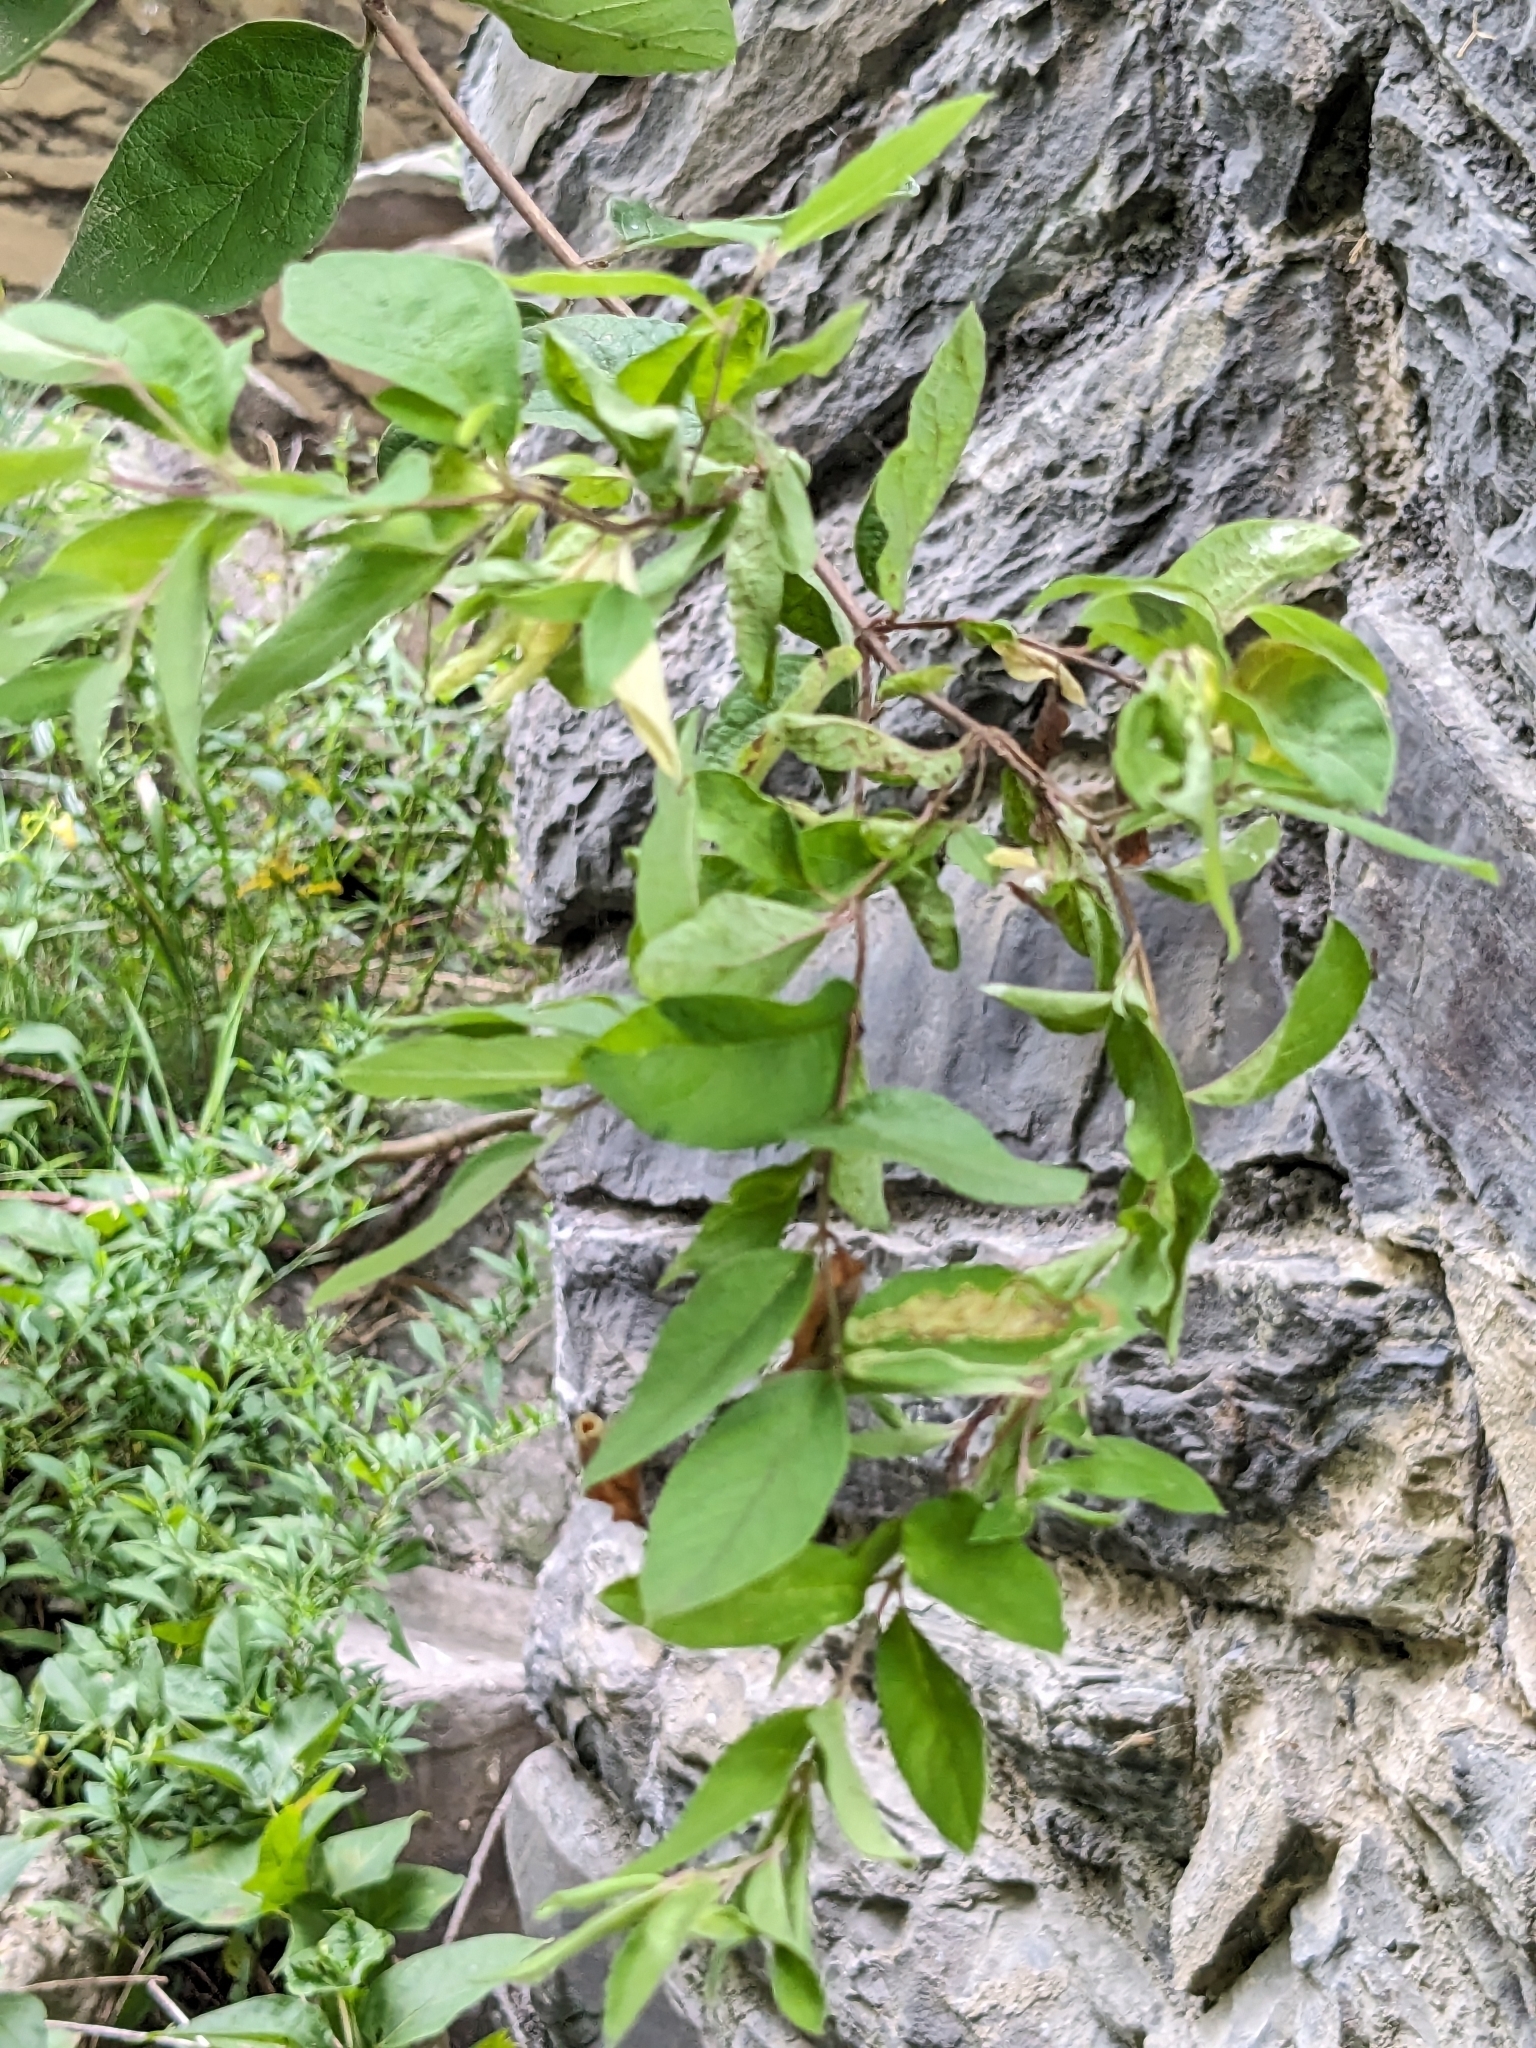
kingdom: Plantae
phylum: Tracheophyta
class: Magnoliopsida
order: Dipsacales
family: Caprifoliaceae
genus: Lonicera
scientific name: Lonicera
